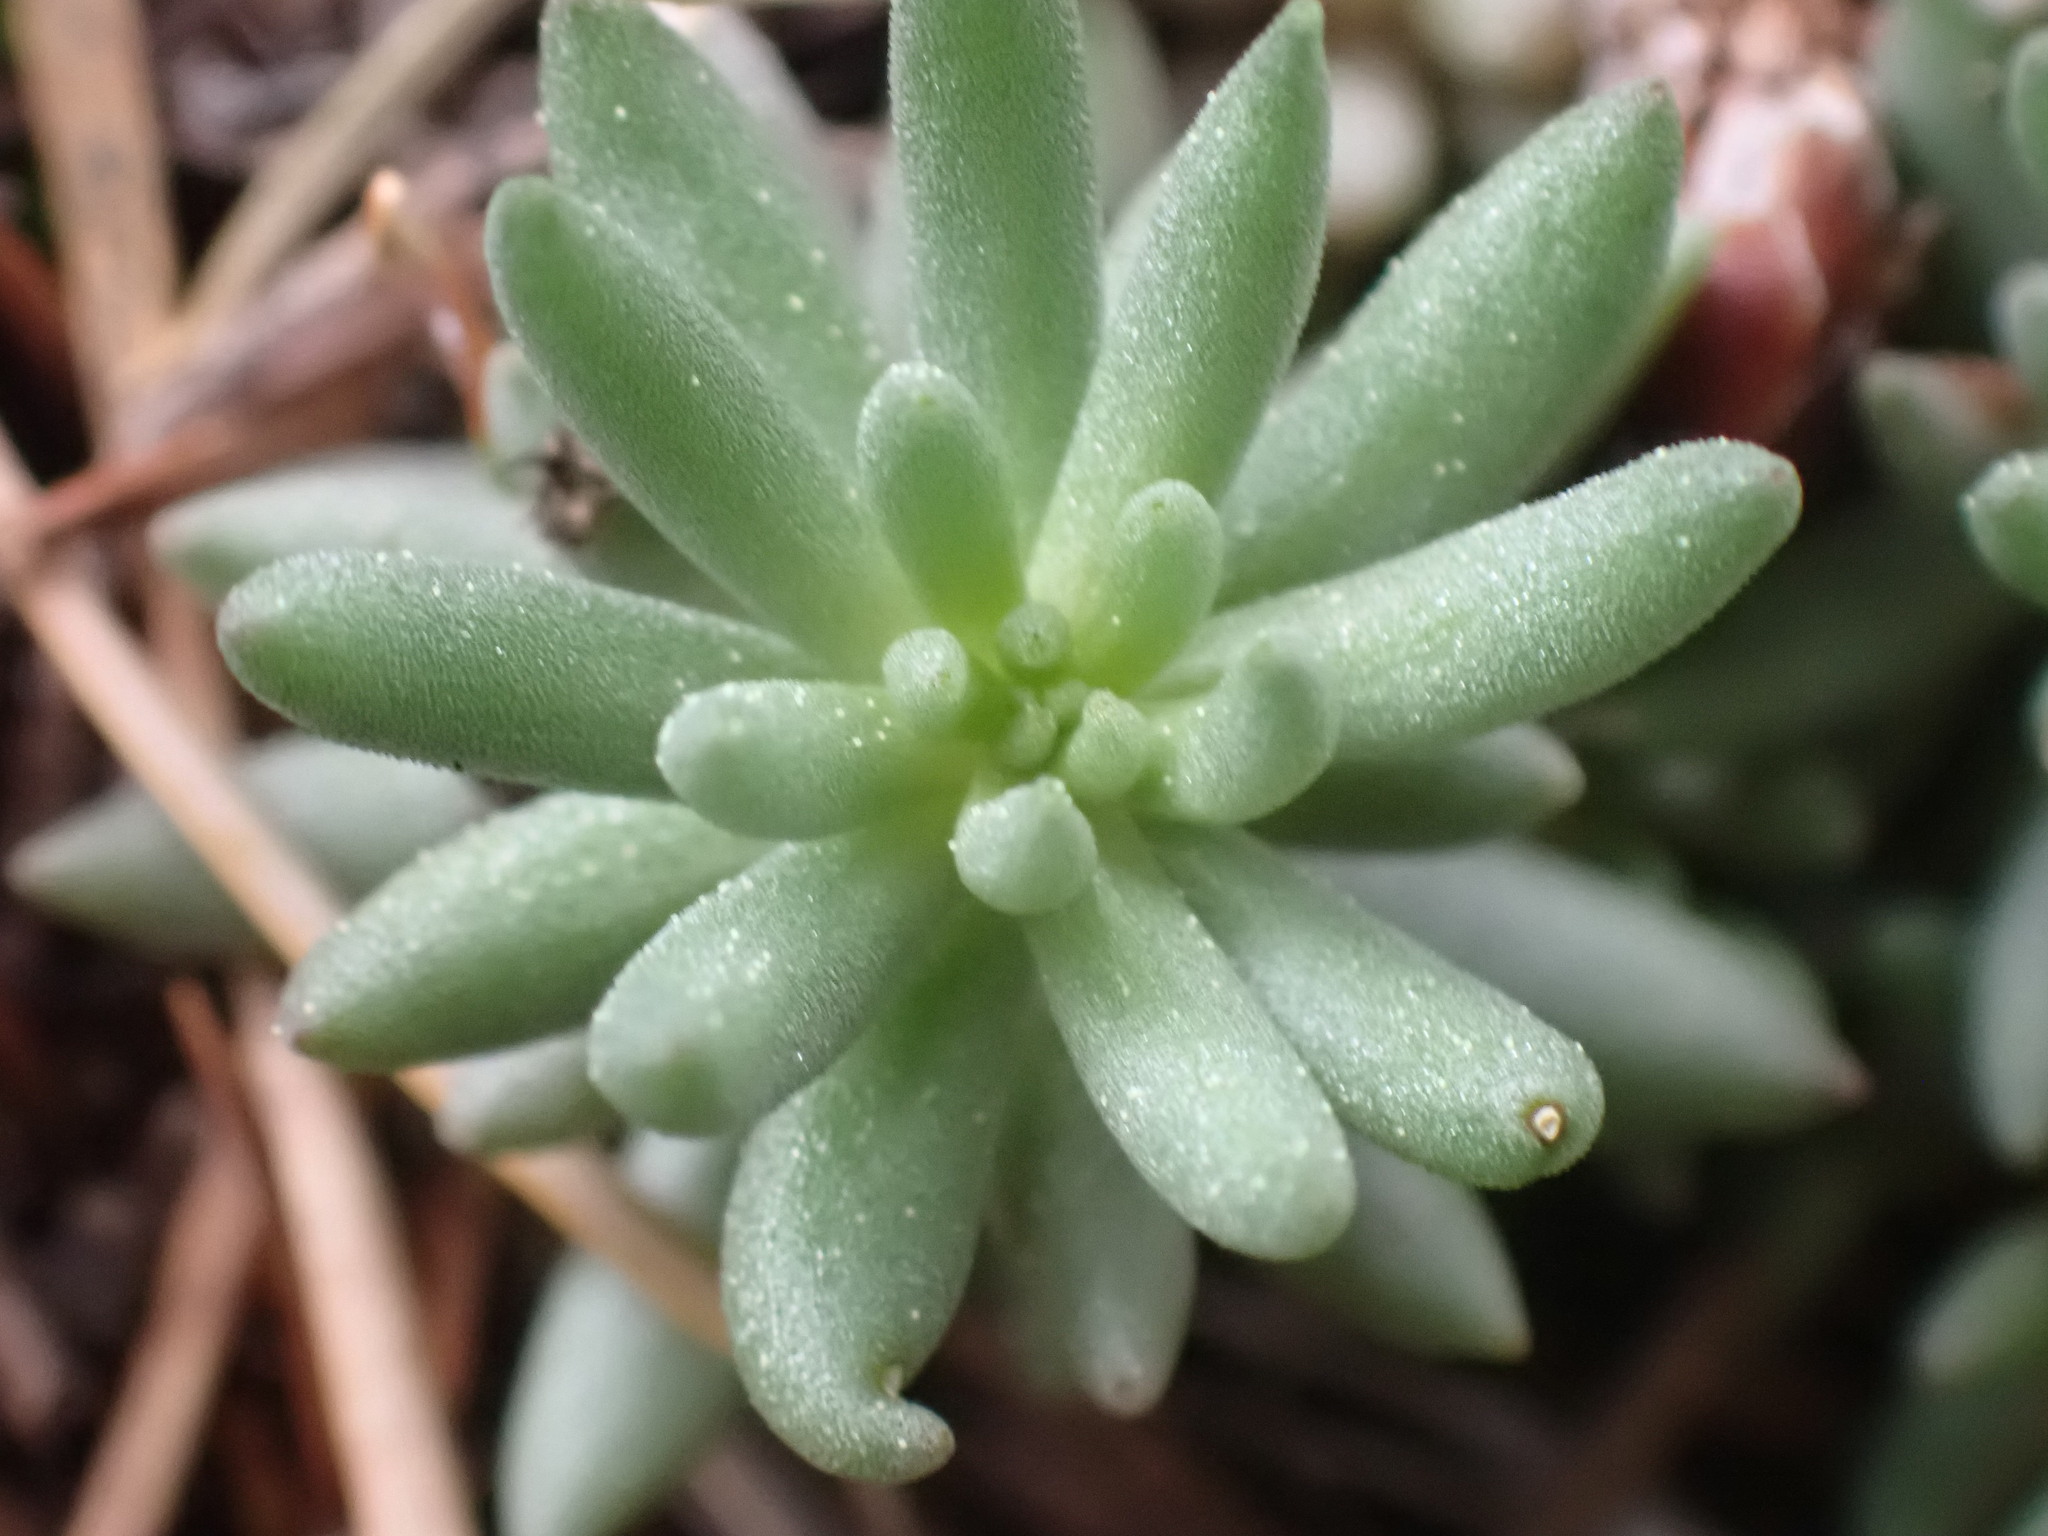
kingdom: Plantae
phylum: Tracheophyta
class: Magnoliopsida
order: Saxifragales
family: Crassulaceae
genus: Sedum
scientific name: Sedum lanceolatum
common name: Common stonecrop
